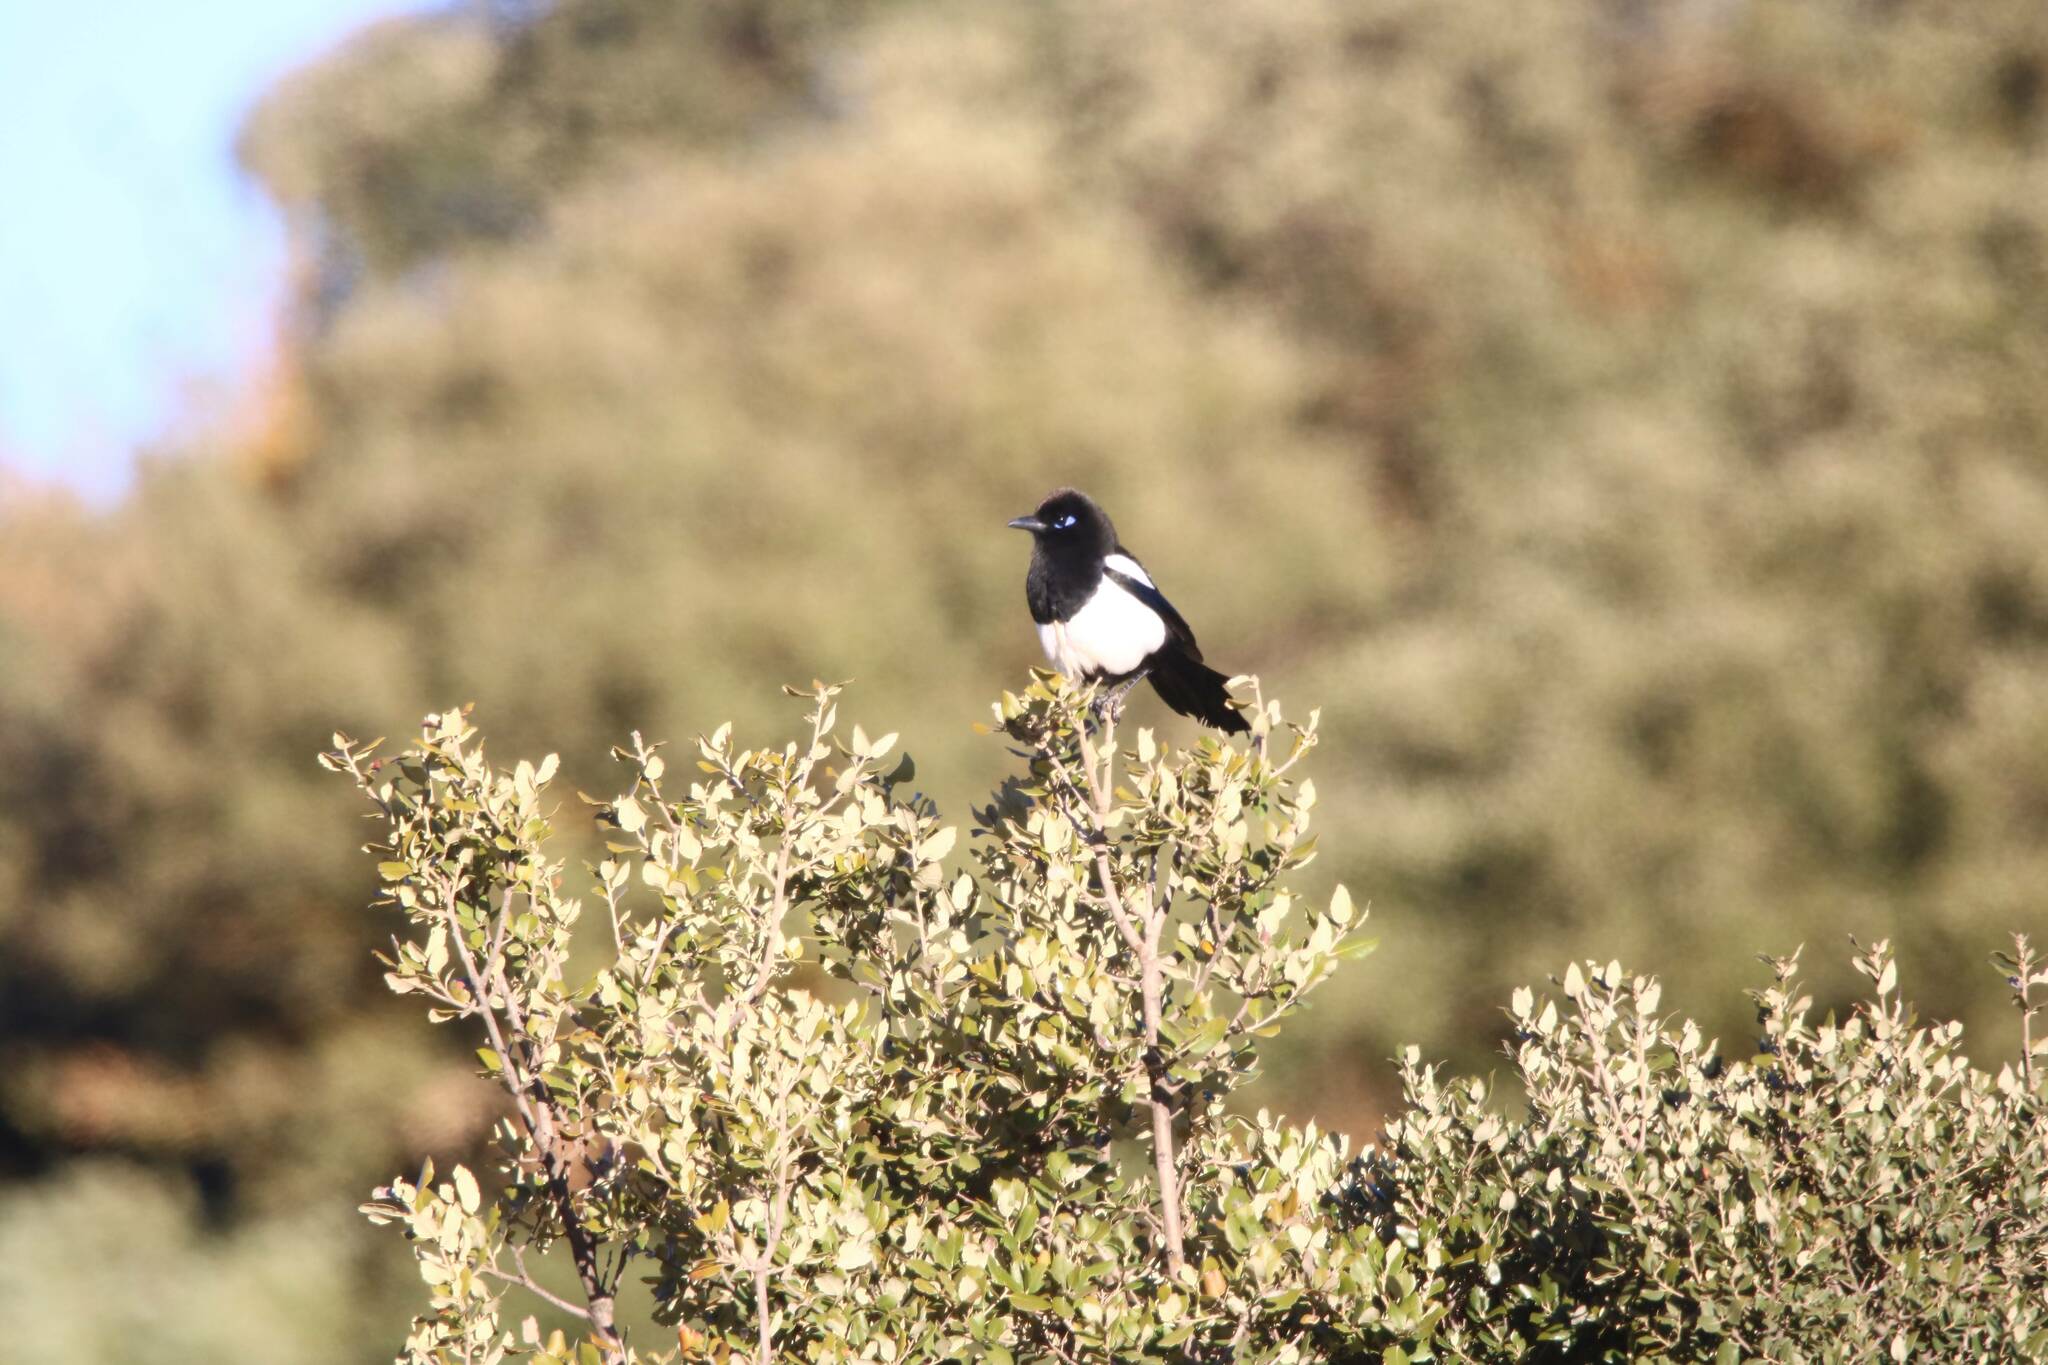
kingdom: Animalia
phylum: Chordata
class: Aves
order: Passeriformes
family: Corvidae
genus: Pica
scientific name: Pica mauritanica
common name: Maghreb magpie
